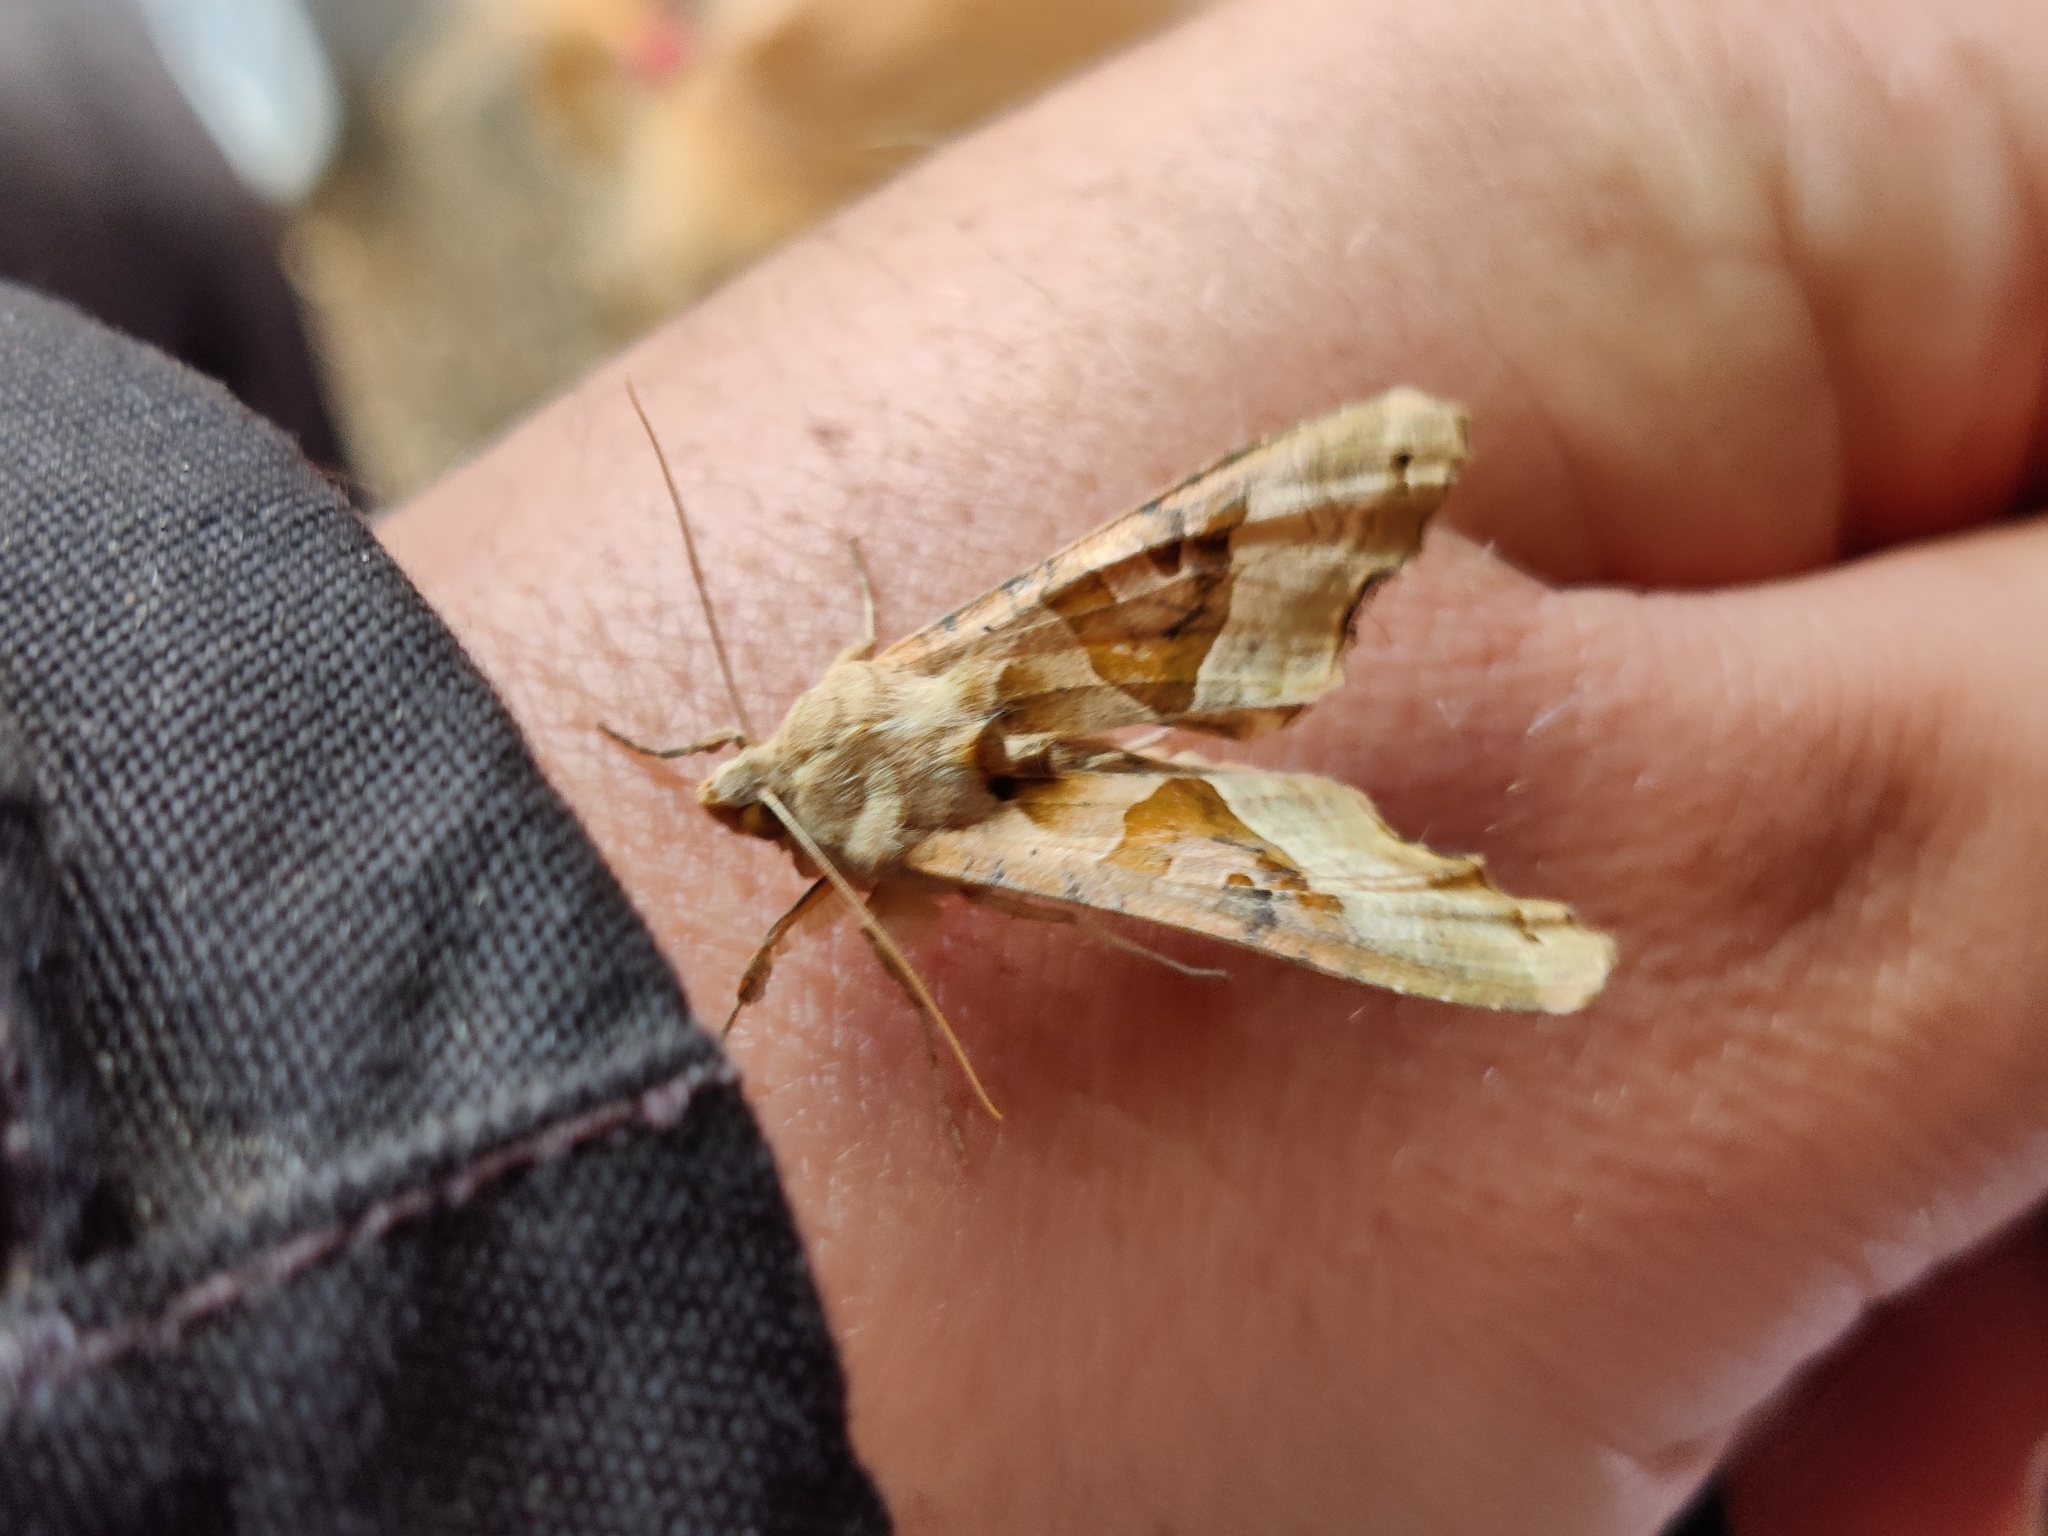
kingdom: Animalia
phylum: Arthropoda
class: Insecta
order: Lepidoptera
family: Noctuidae
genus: Phlogophora
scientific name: Phlogophora meticulosa
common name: Angle shades
